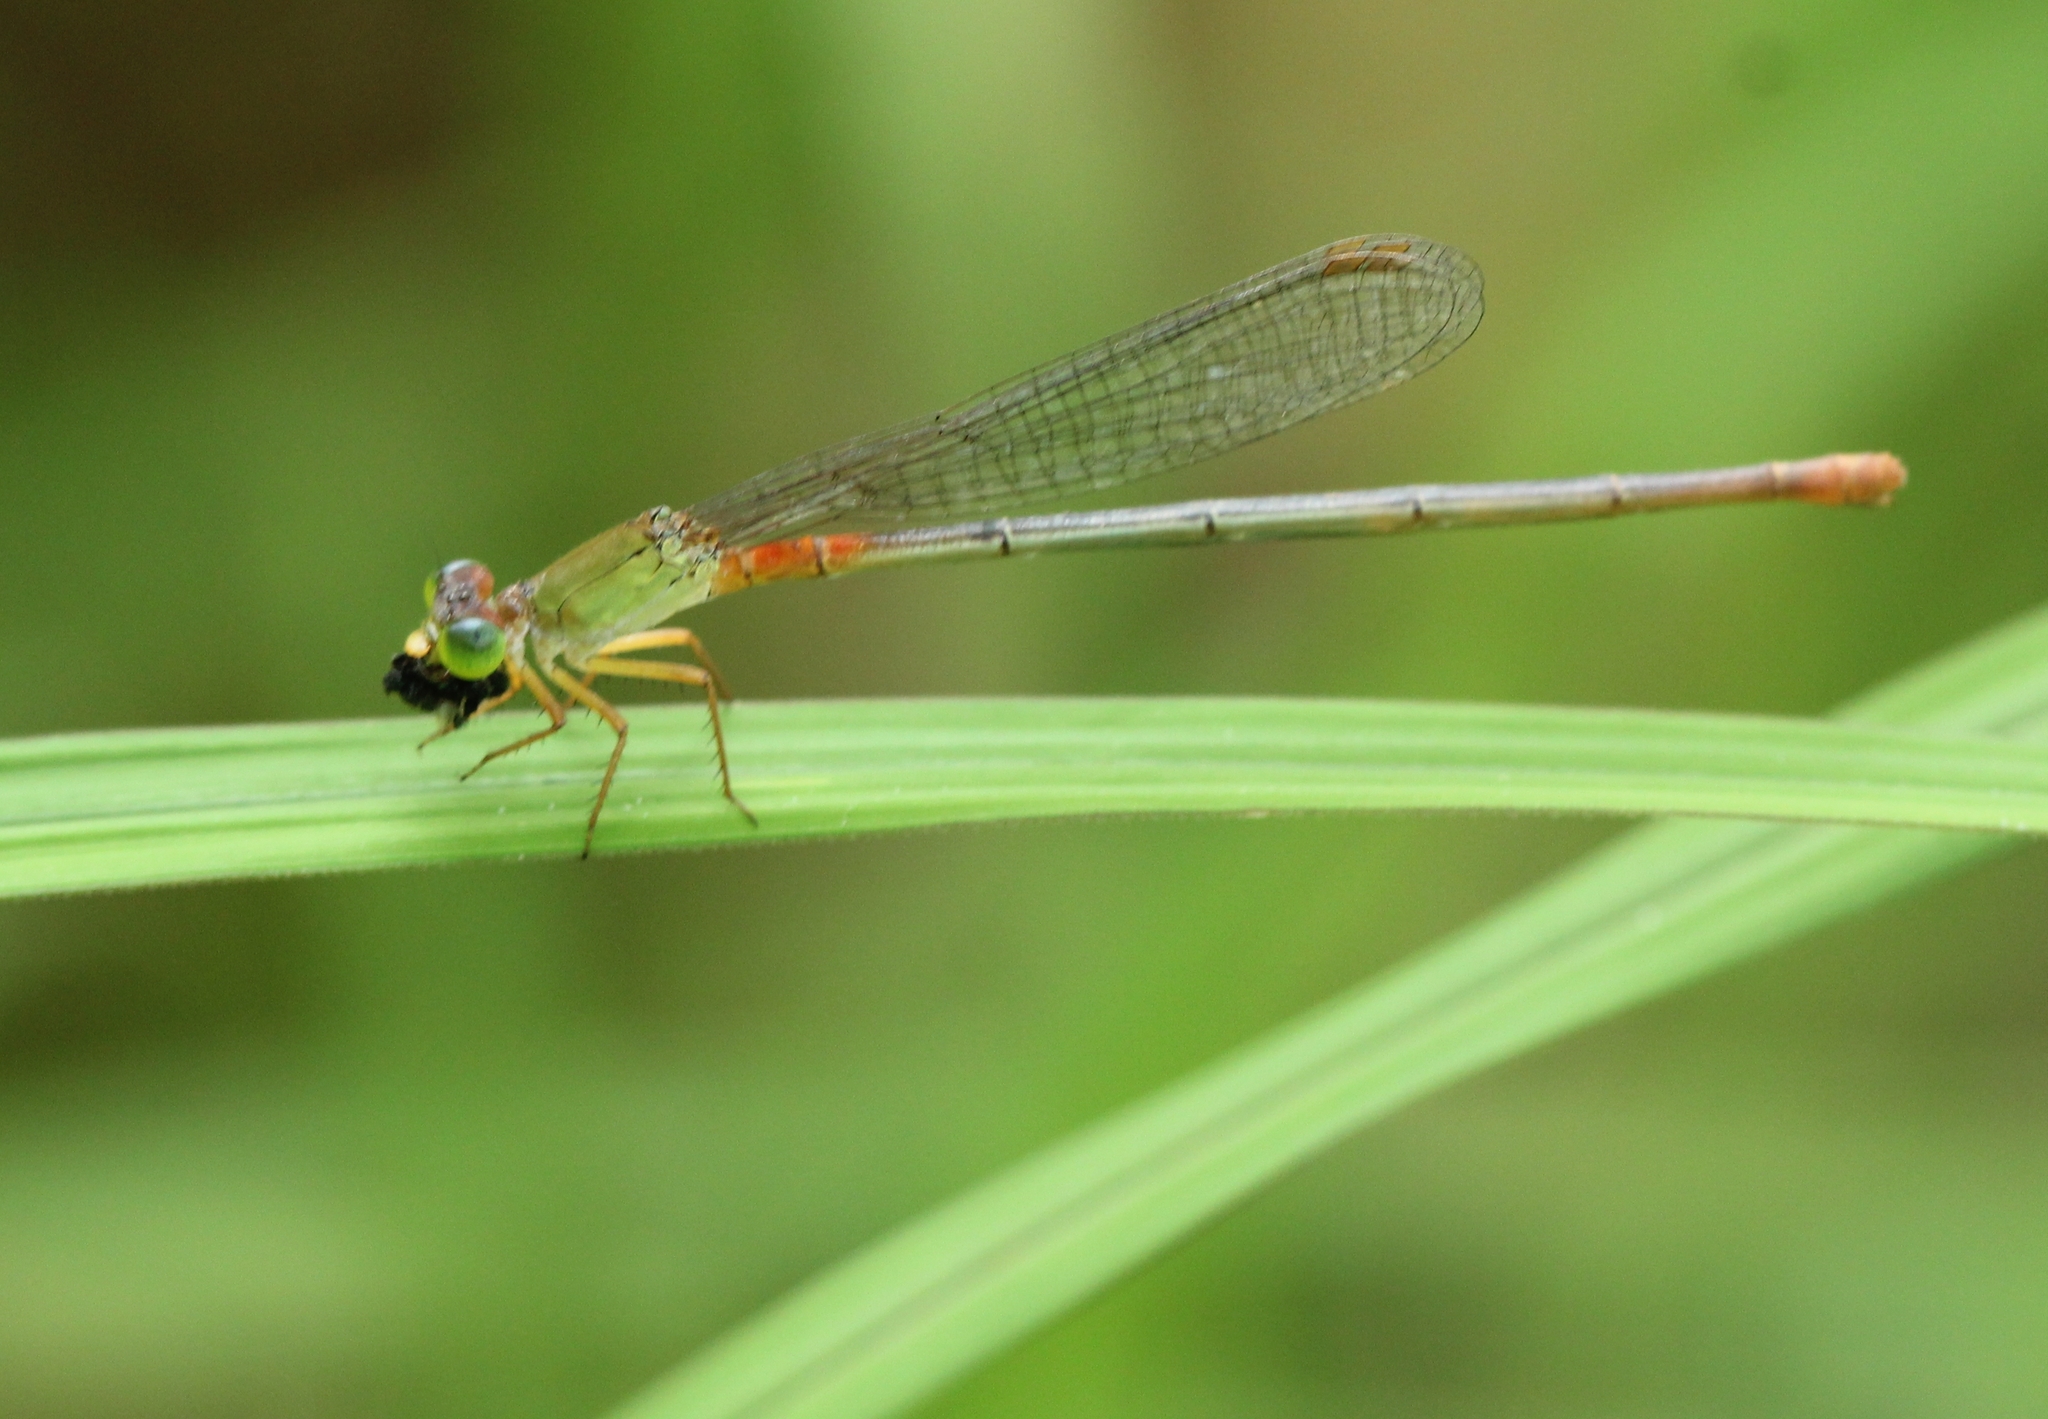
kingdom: Animalia
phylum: Arthropoda
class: Insecta
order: Odonata
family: Coenagrionidae
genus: Ceriagrion
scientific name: Ceriagrion cerinorubellum
